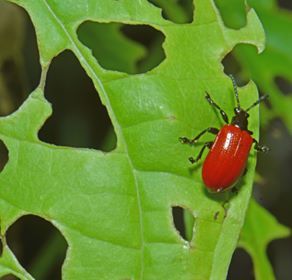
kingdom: Animalia
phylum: Arthropoda
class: Insecta
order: Coleoptera
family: Chrysomelidae
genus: Lilioceris
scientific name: Lilioceris cheni
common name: Leaf beetle
